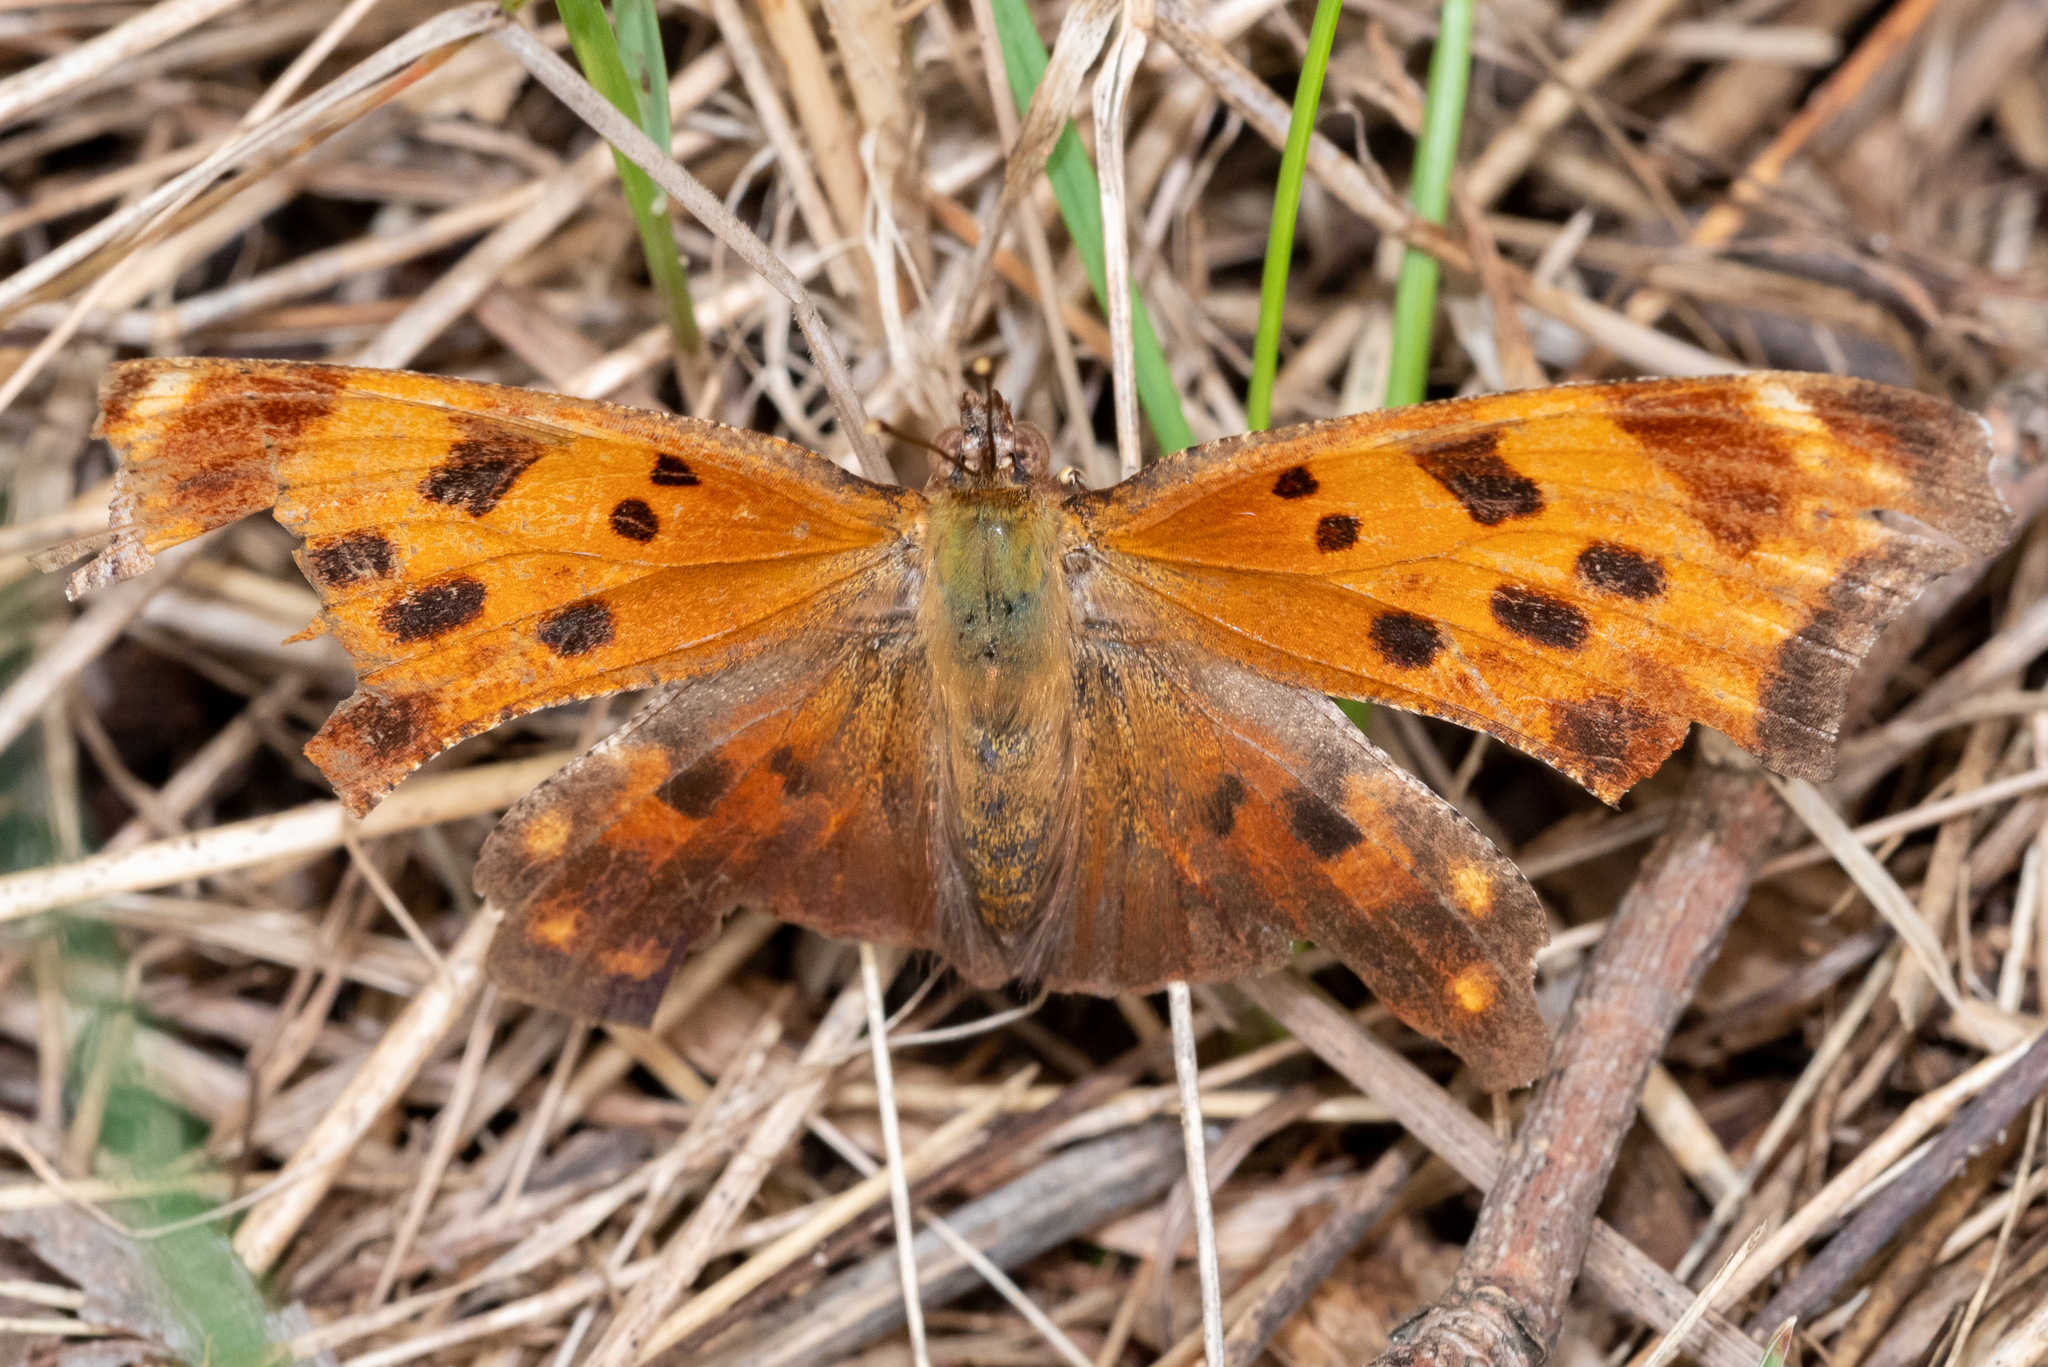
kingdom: Animalia
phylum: Arthropoda
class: Insecta
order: Lepidoptera
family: Nymphalidae
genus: Polygonia
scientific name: Polygonia comma
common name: Eastern comma
